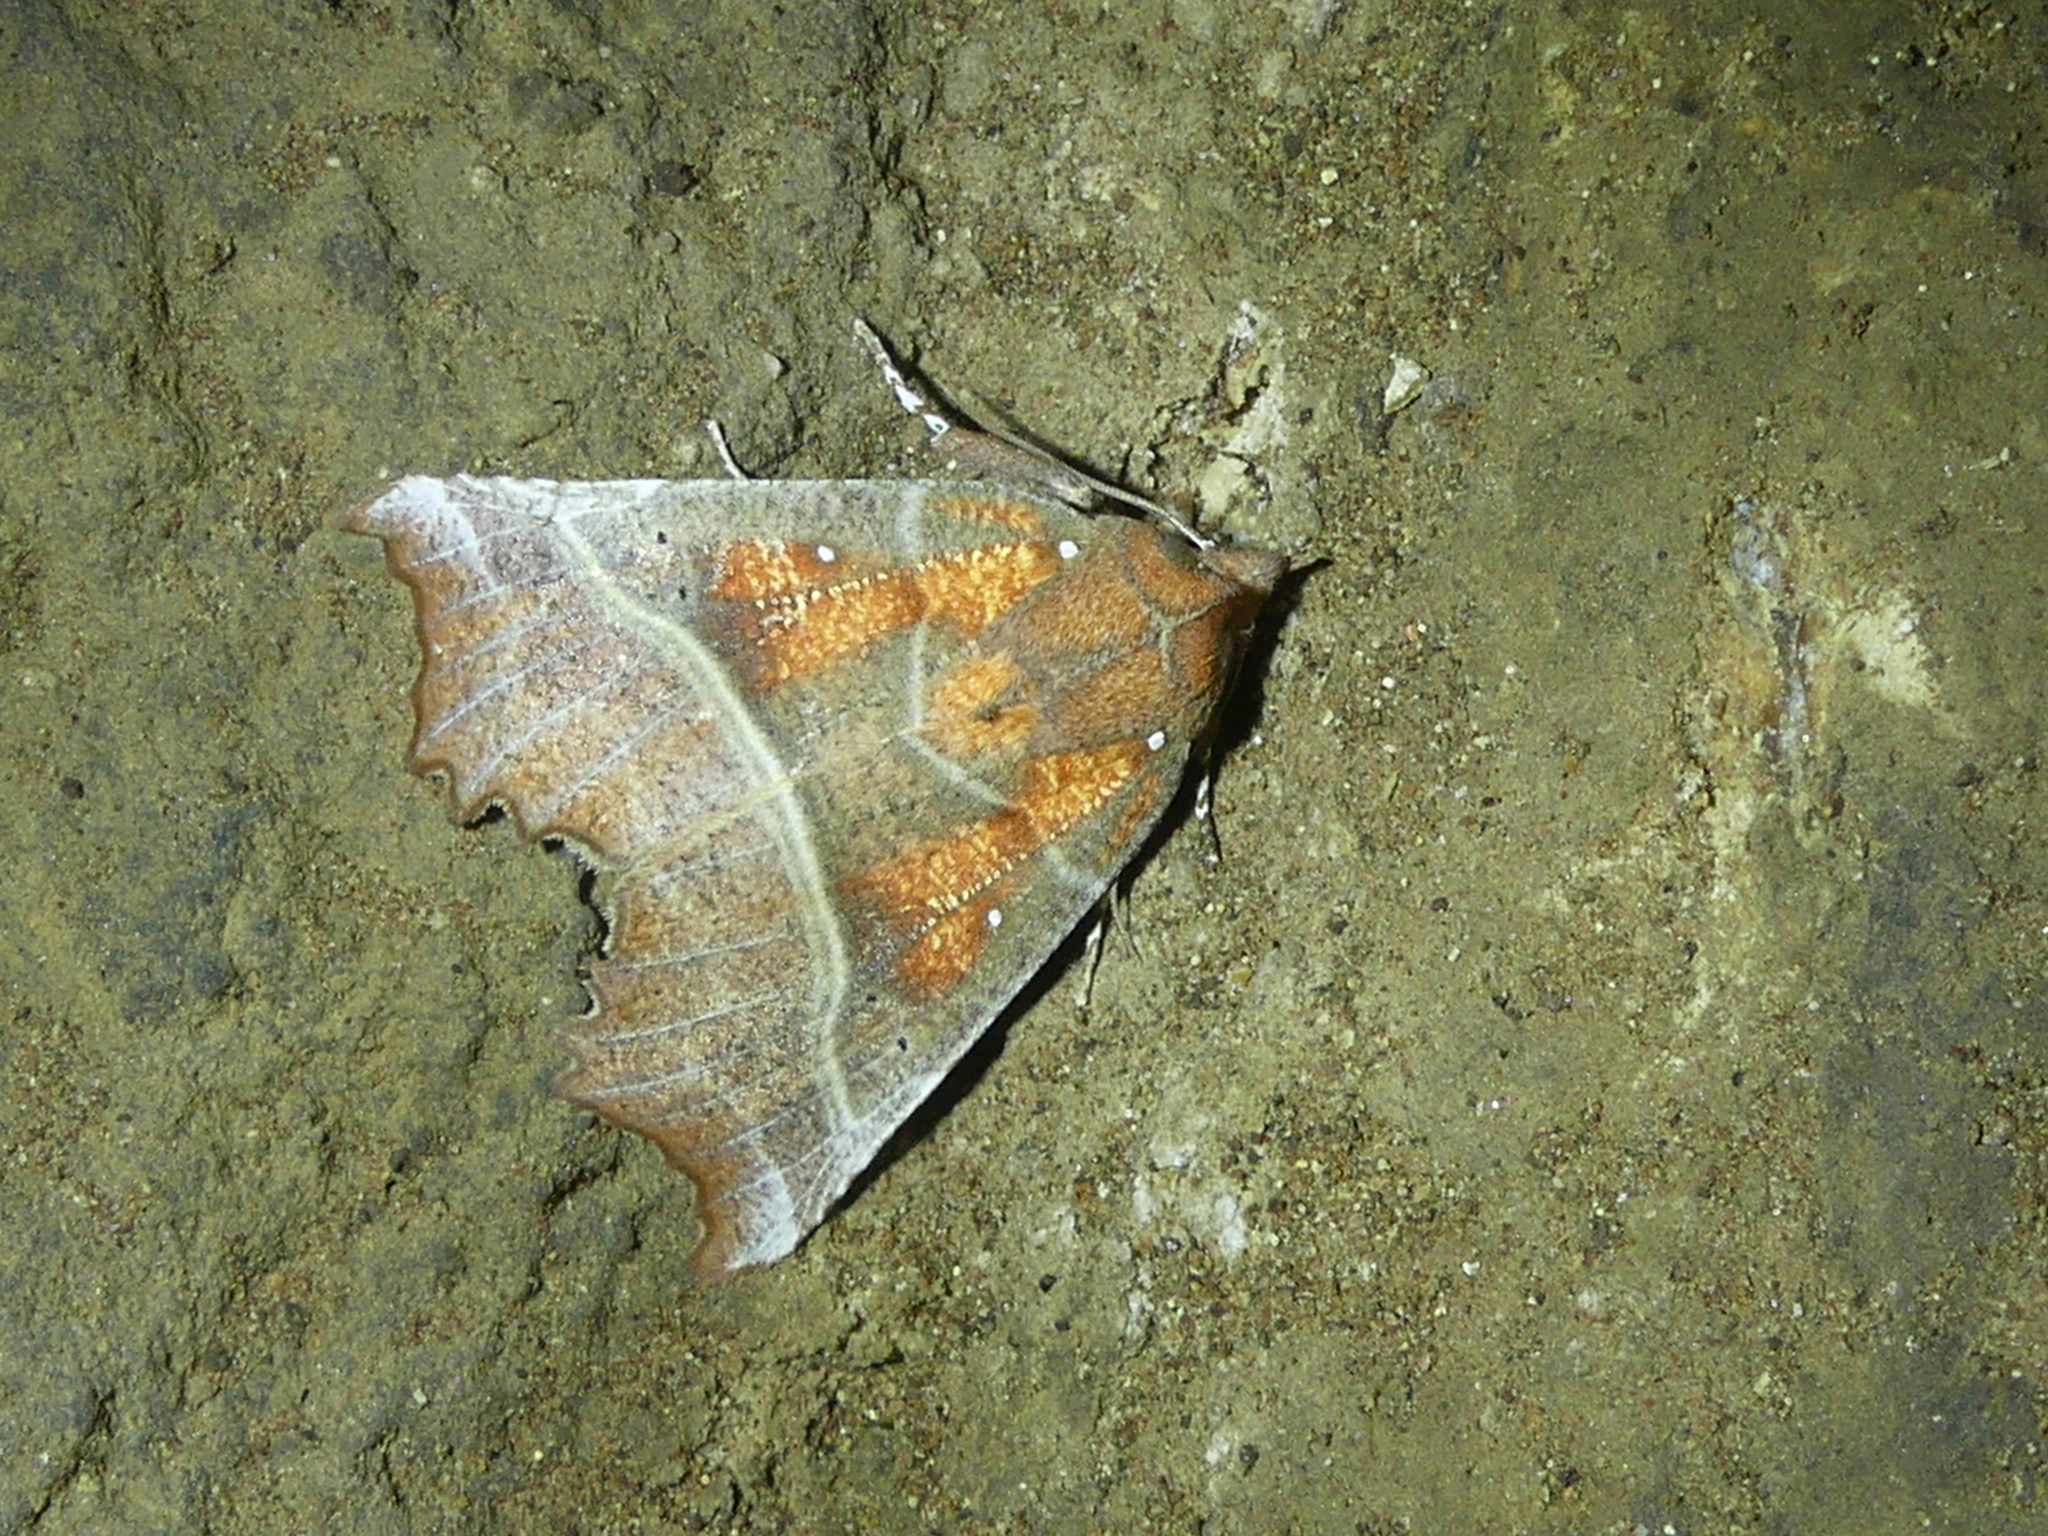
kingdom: Animalia
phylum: Arthropoda
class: Insecta
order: Lepidoptera
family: Erebidae
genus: Scoliopteryx
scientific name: Scoliopteryx libatrix
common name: Herald
